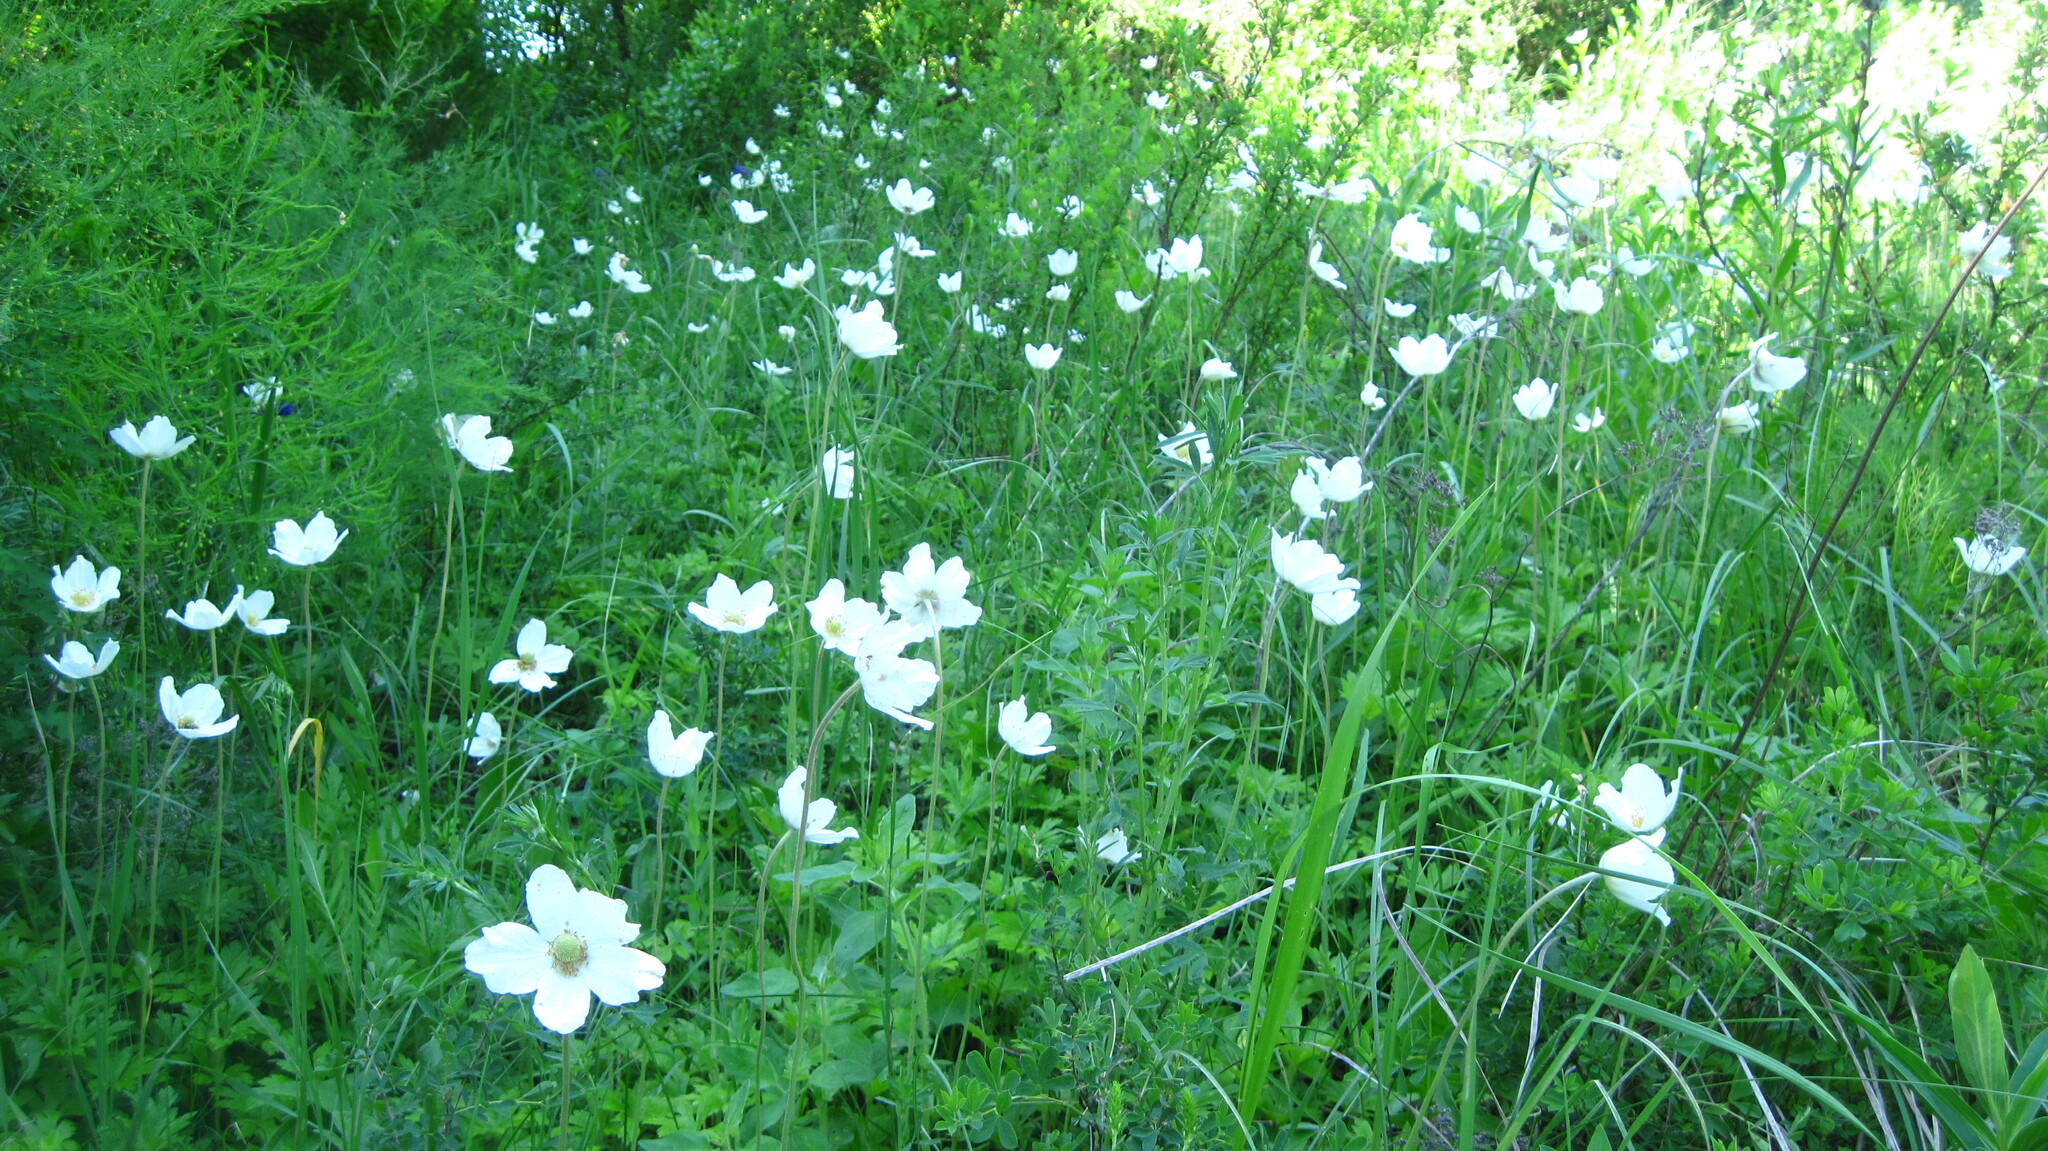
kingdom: Plantae
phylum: Tracheophyta
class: Magnoliopsida
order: Ranunculales
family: Ranunculaceae
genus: Anemone
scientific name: Anemone sylvestris
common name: Snowdrop anemone
